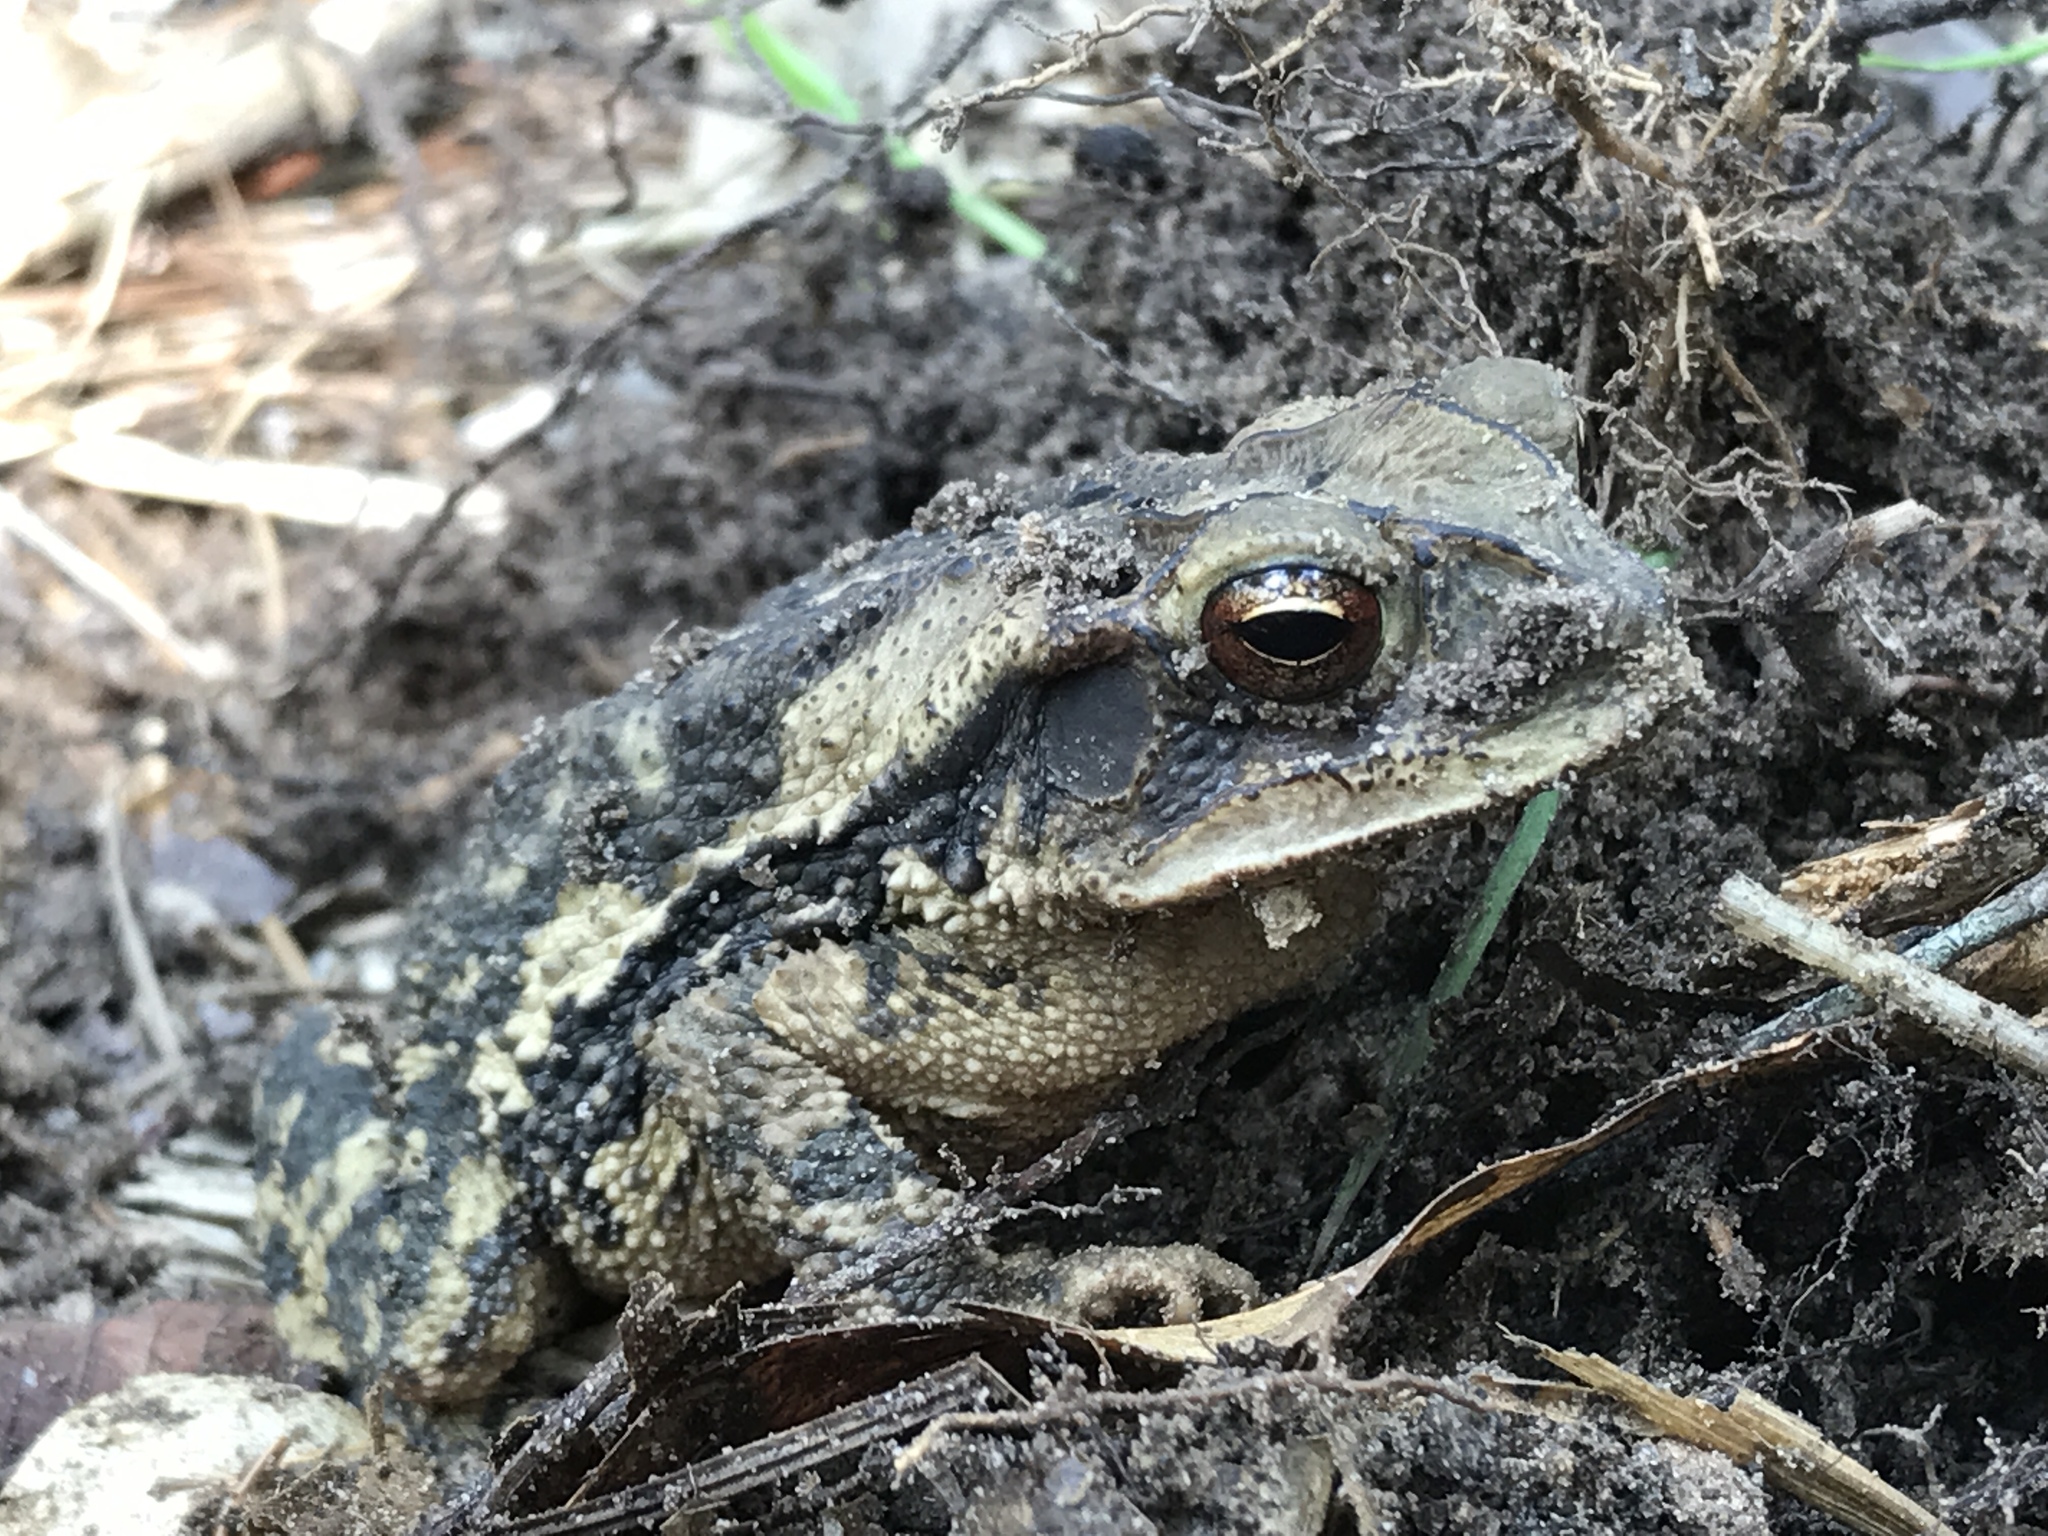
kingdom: Animalia
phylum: Chordata
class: Amphibia
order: Anura
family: Bufonidae
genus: Incilius
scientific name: Incilius nebulifer
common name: Gulf coast toad
